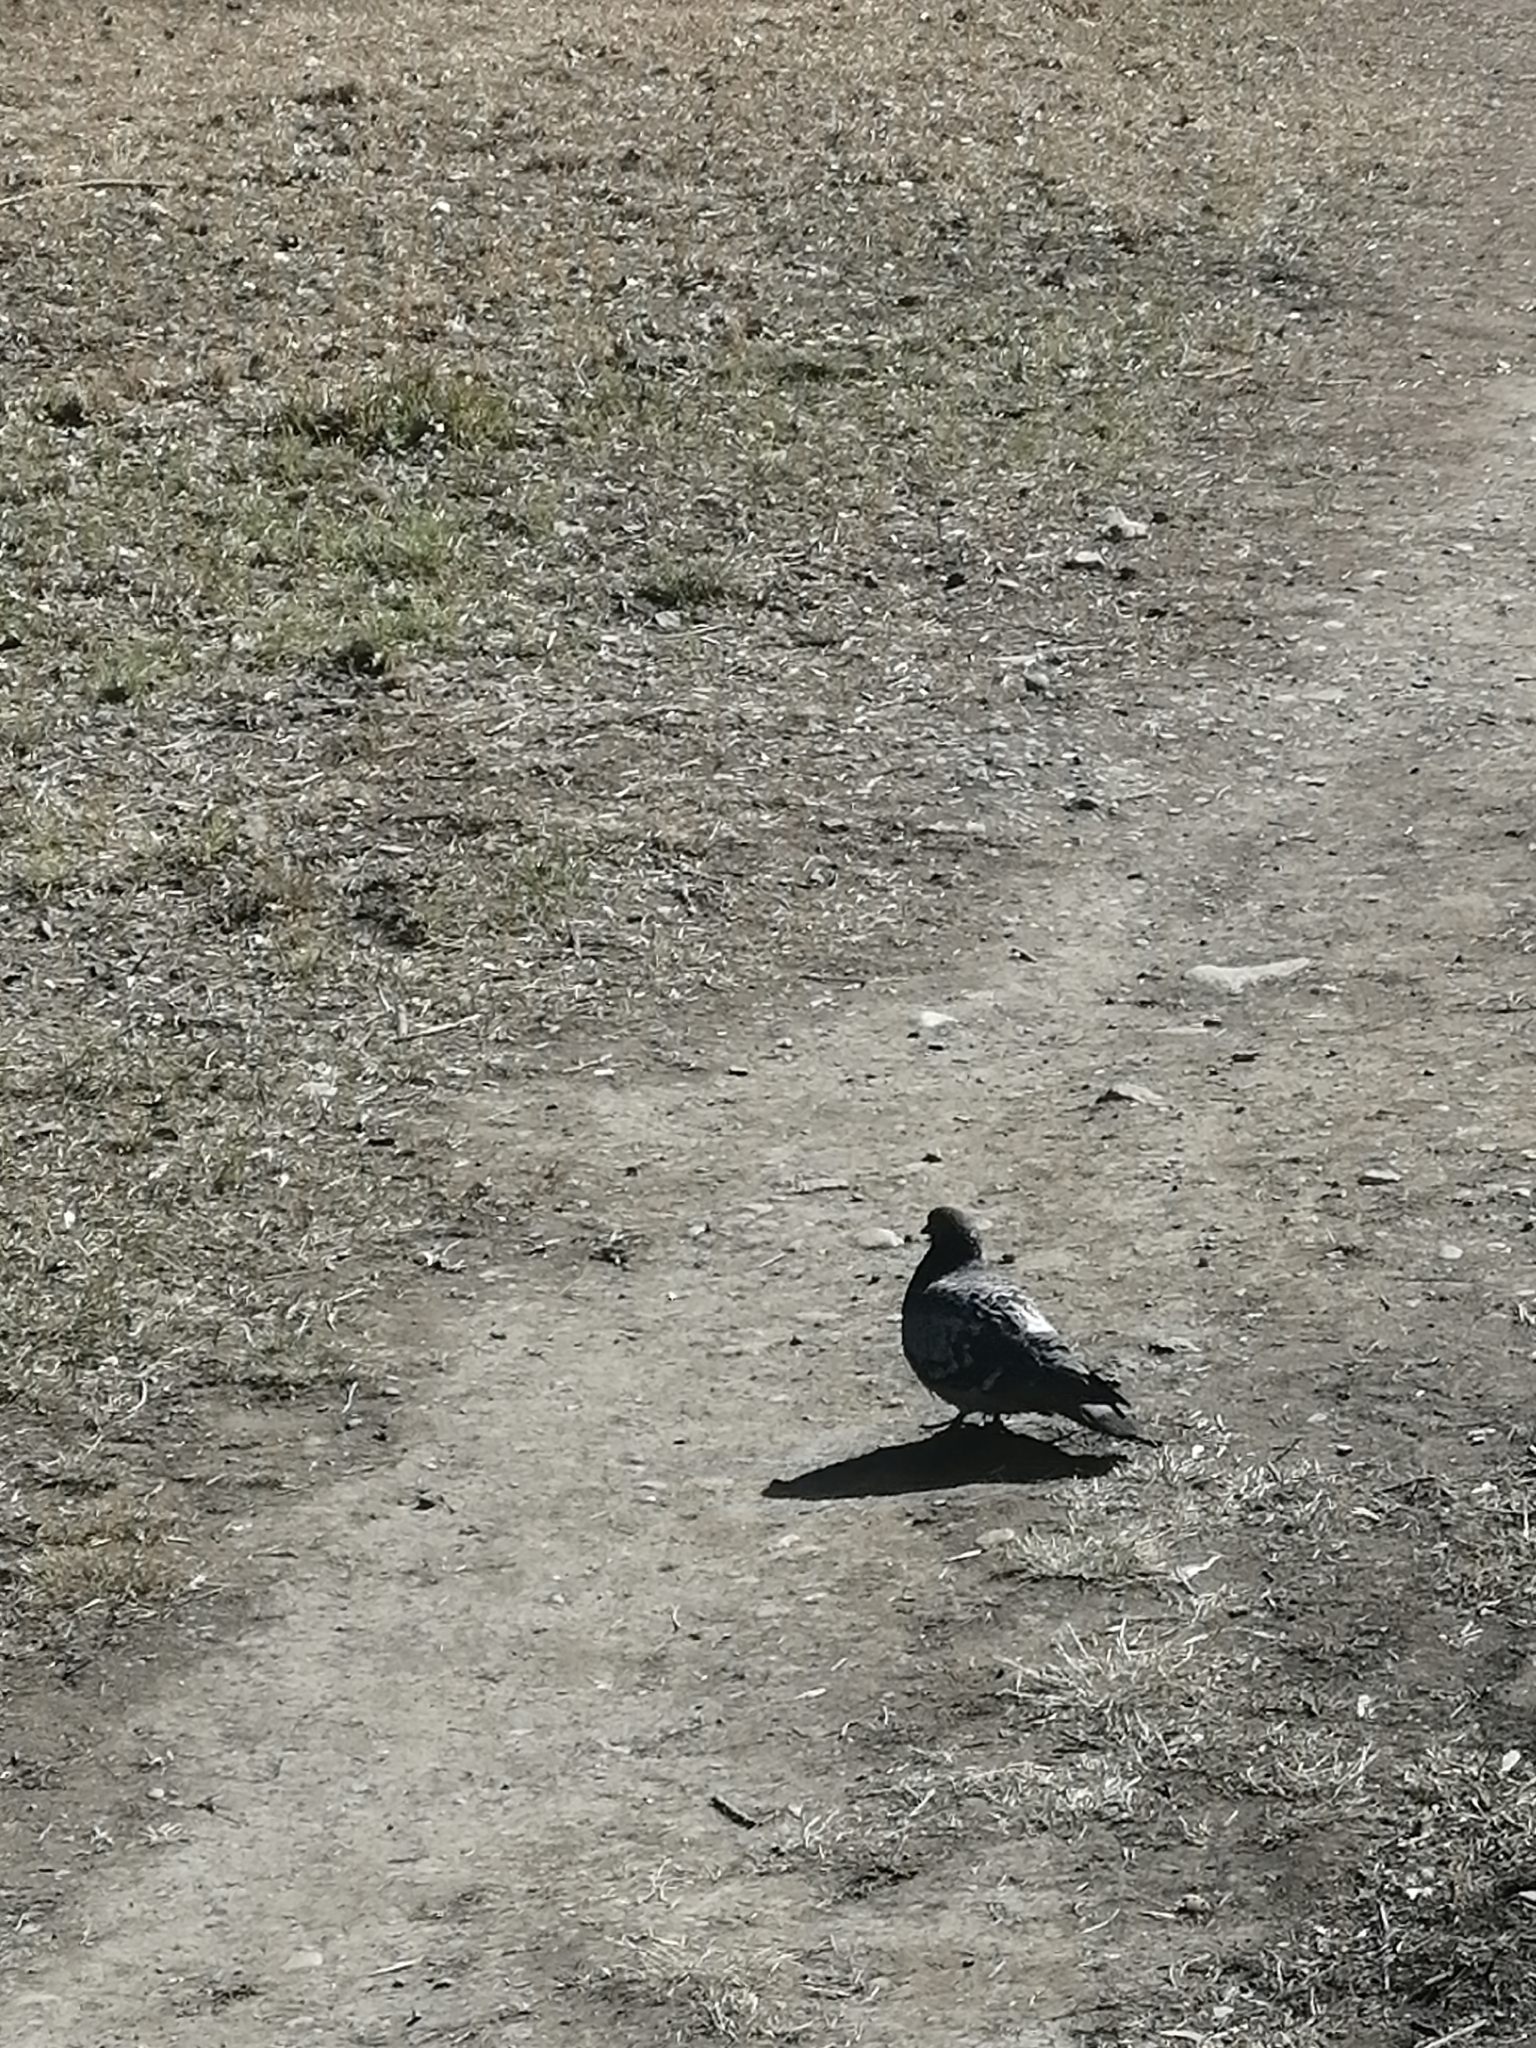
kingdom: Animalia
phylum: Chordata
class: Aves
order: Columbiformes
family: Columbidae
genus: Columba
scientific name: Columba livia
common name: Rock pigeon
